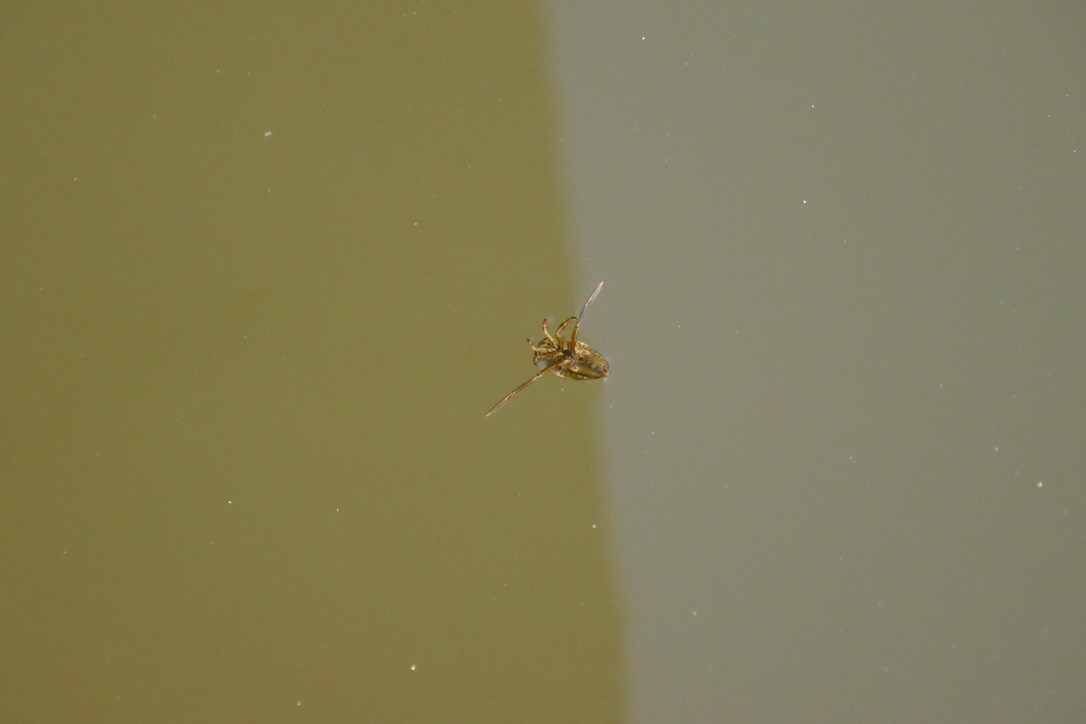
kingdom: Animalia
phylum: Arthropoda
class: Insecta
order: Hemiptera
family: Notonectidae
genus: Notonecta
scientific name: Notonecta
